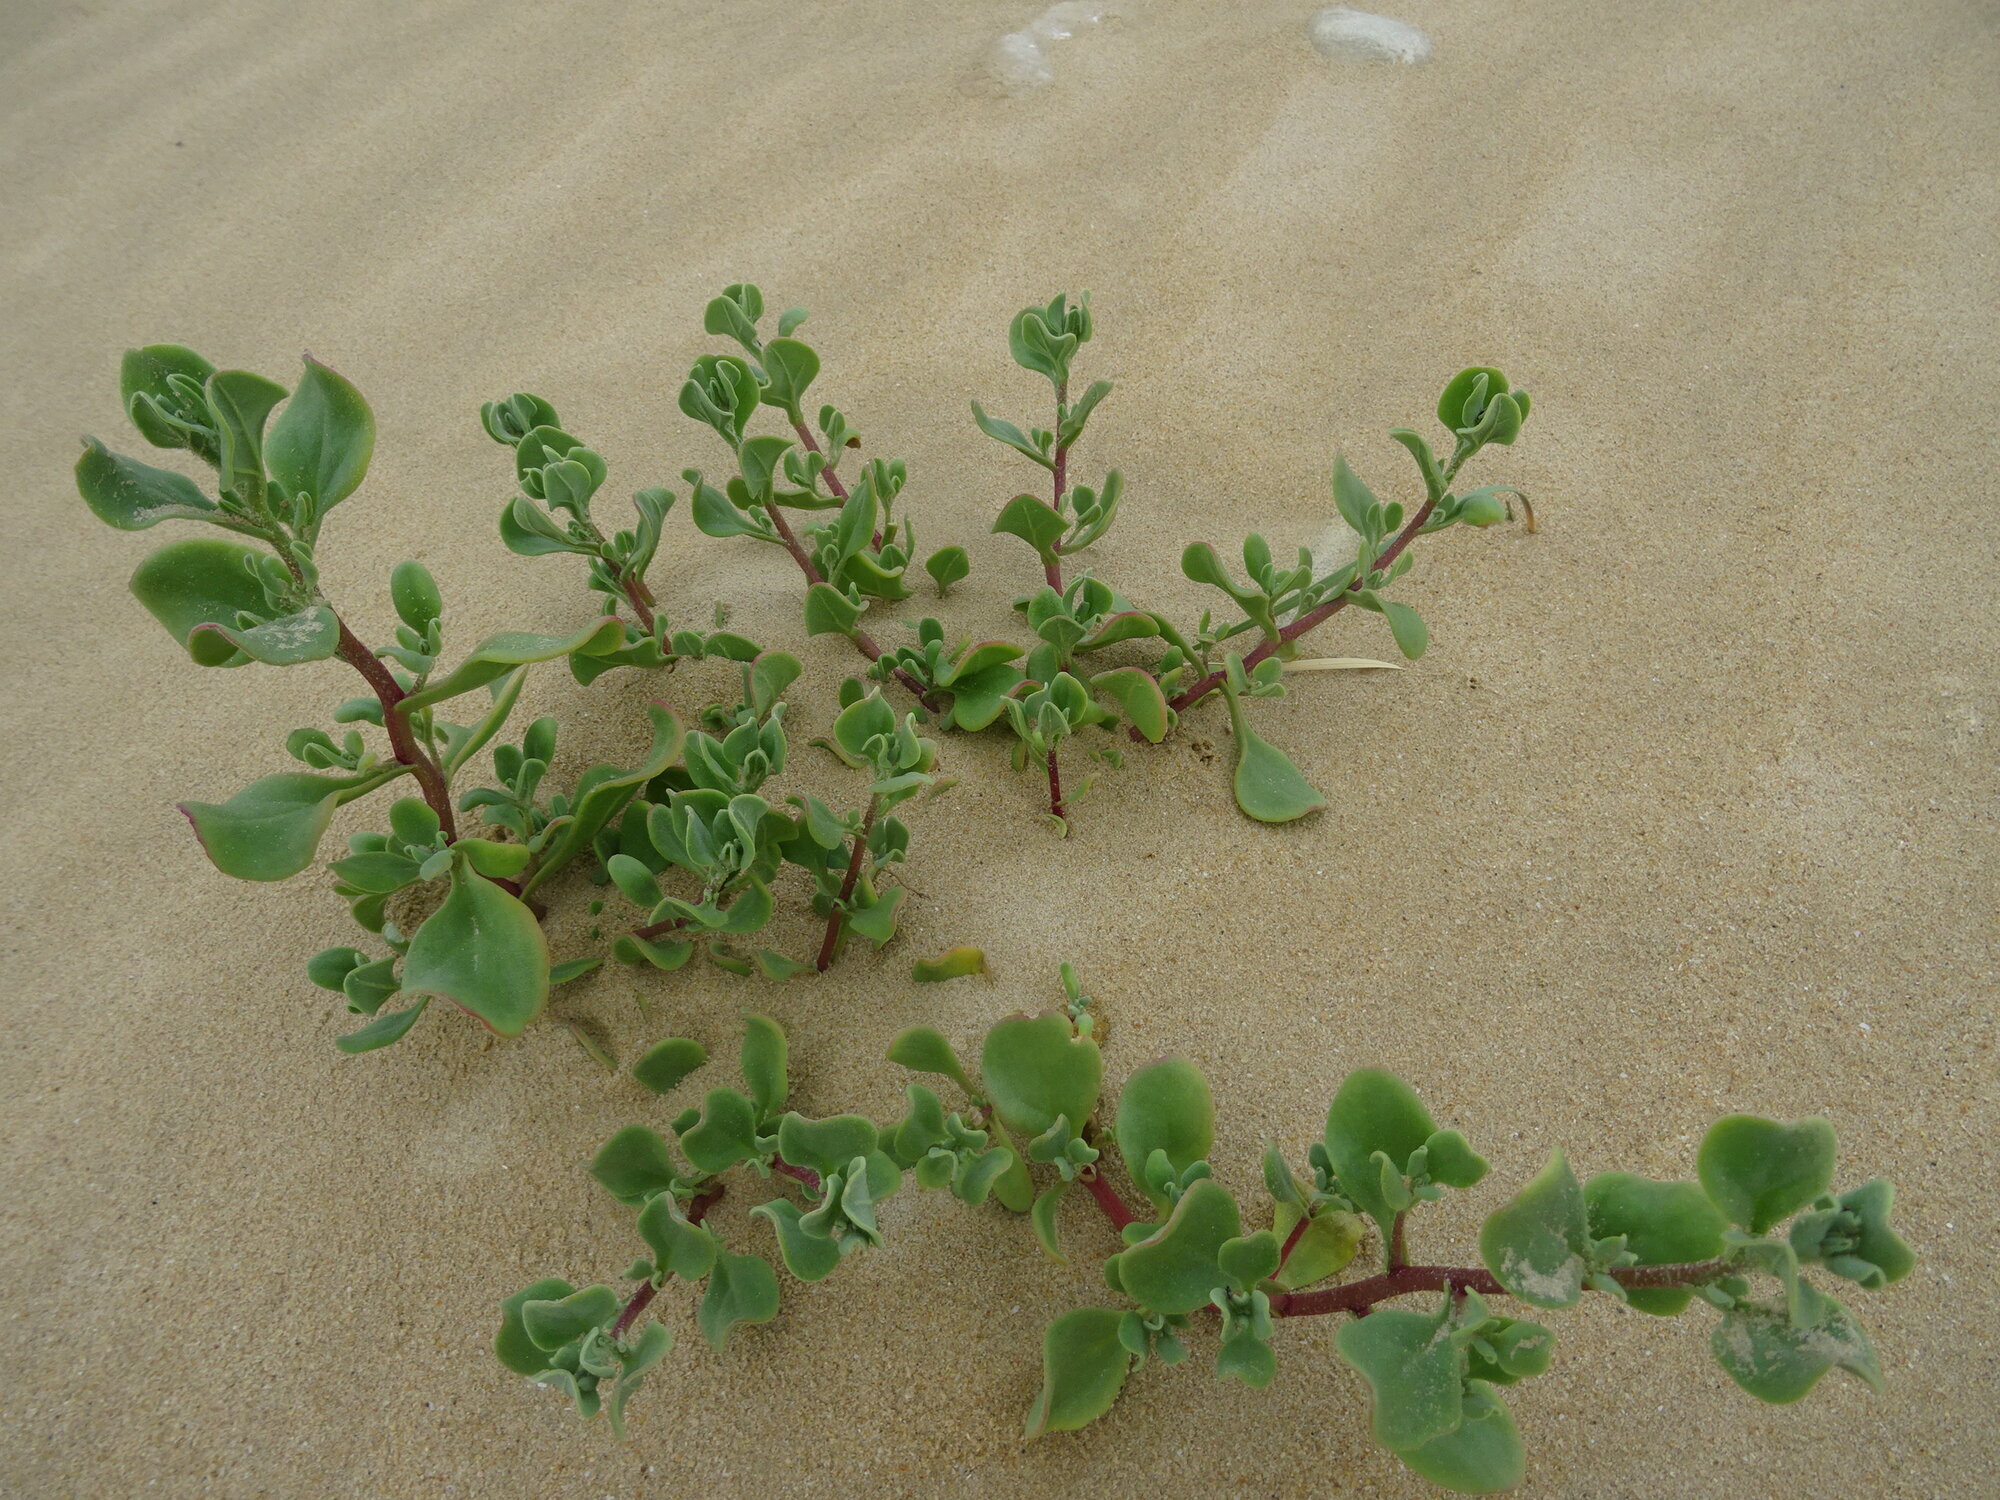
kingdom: Plantae
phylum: Tracheophyta
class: Magnoliopsida
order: Caryophyllales
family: Aizoaceae
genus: Tetragonia
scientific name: Tetragonia decumbens
